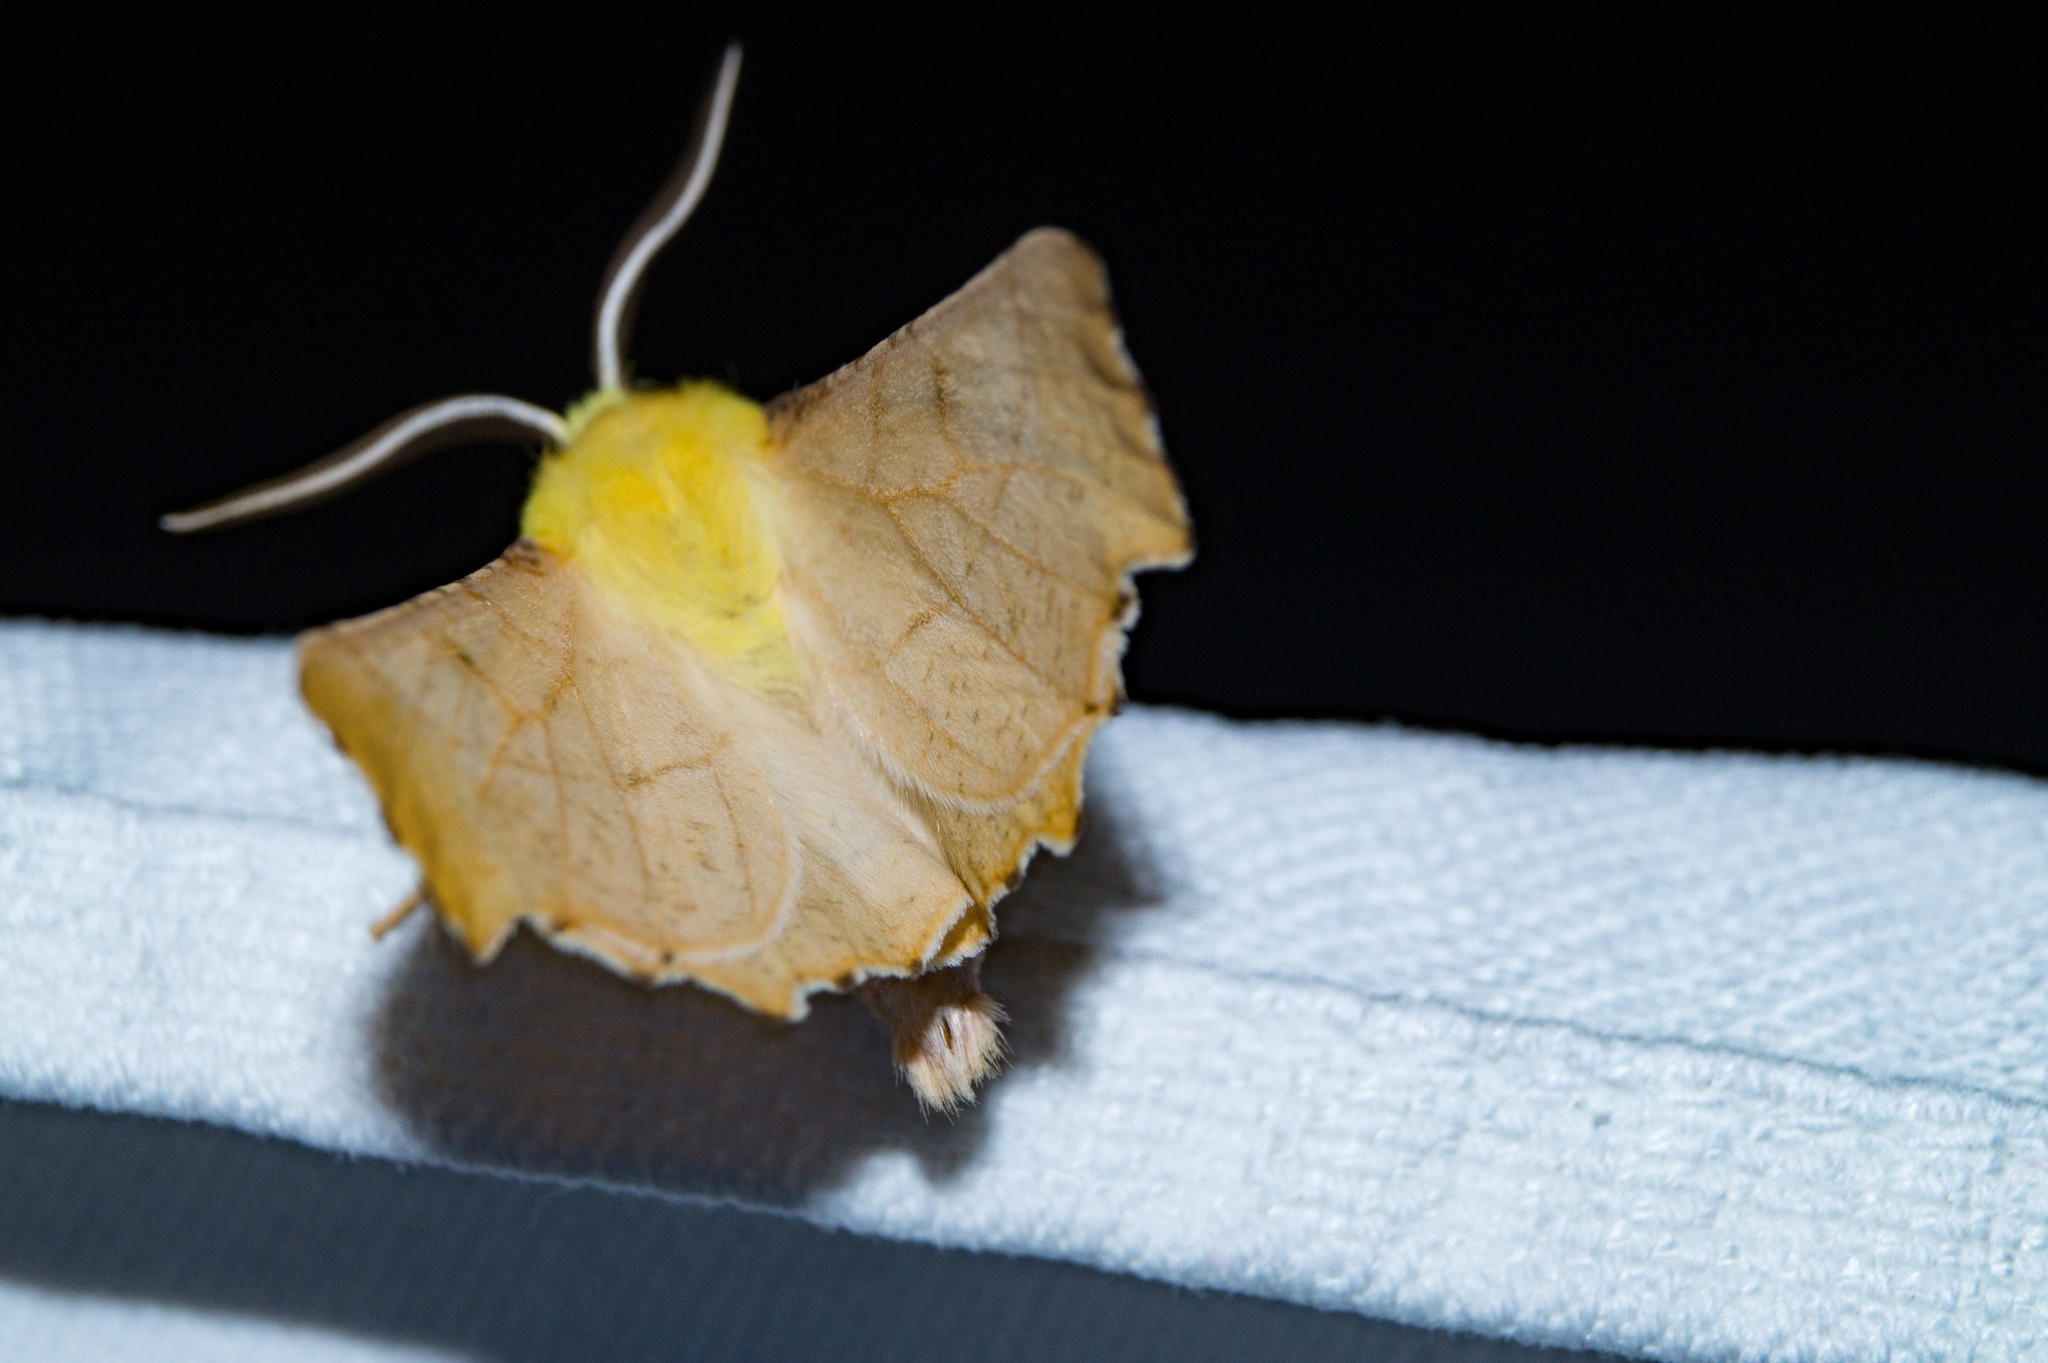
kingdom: Animalia
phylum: Arthropoda
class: Insecta
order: Lepidoptera
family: Geometridae
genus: Ennomos
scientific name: Ennomos alniaria
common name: Canary-shouldered thorn
